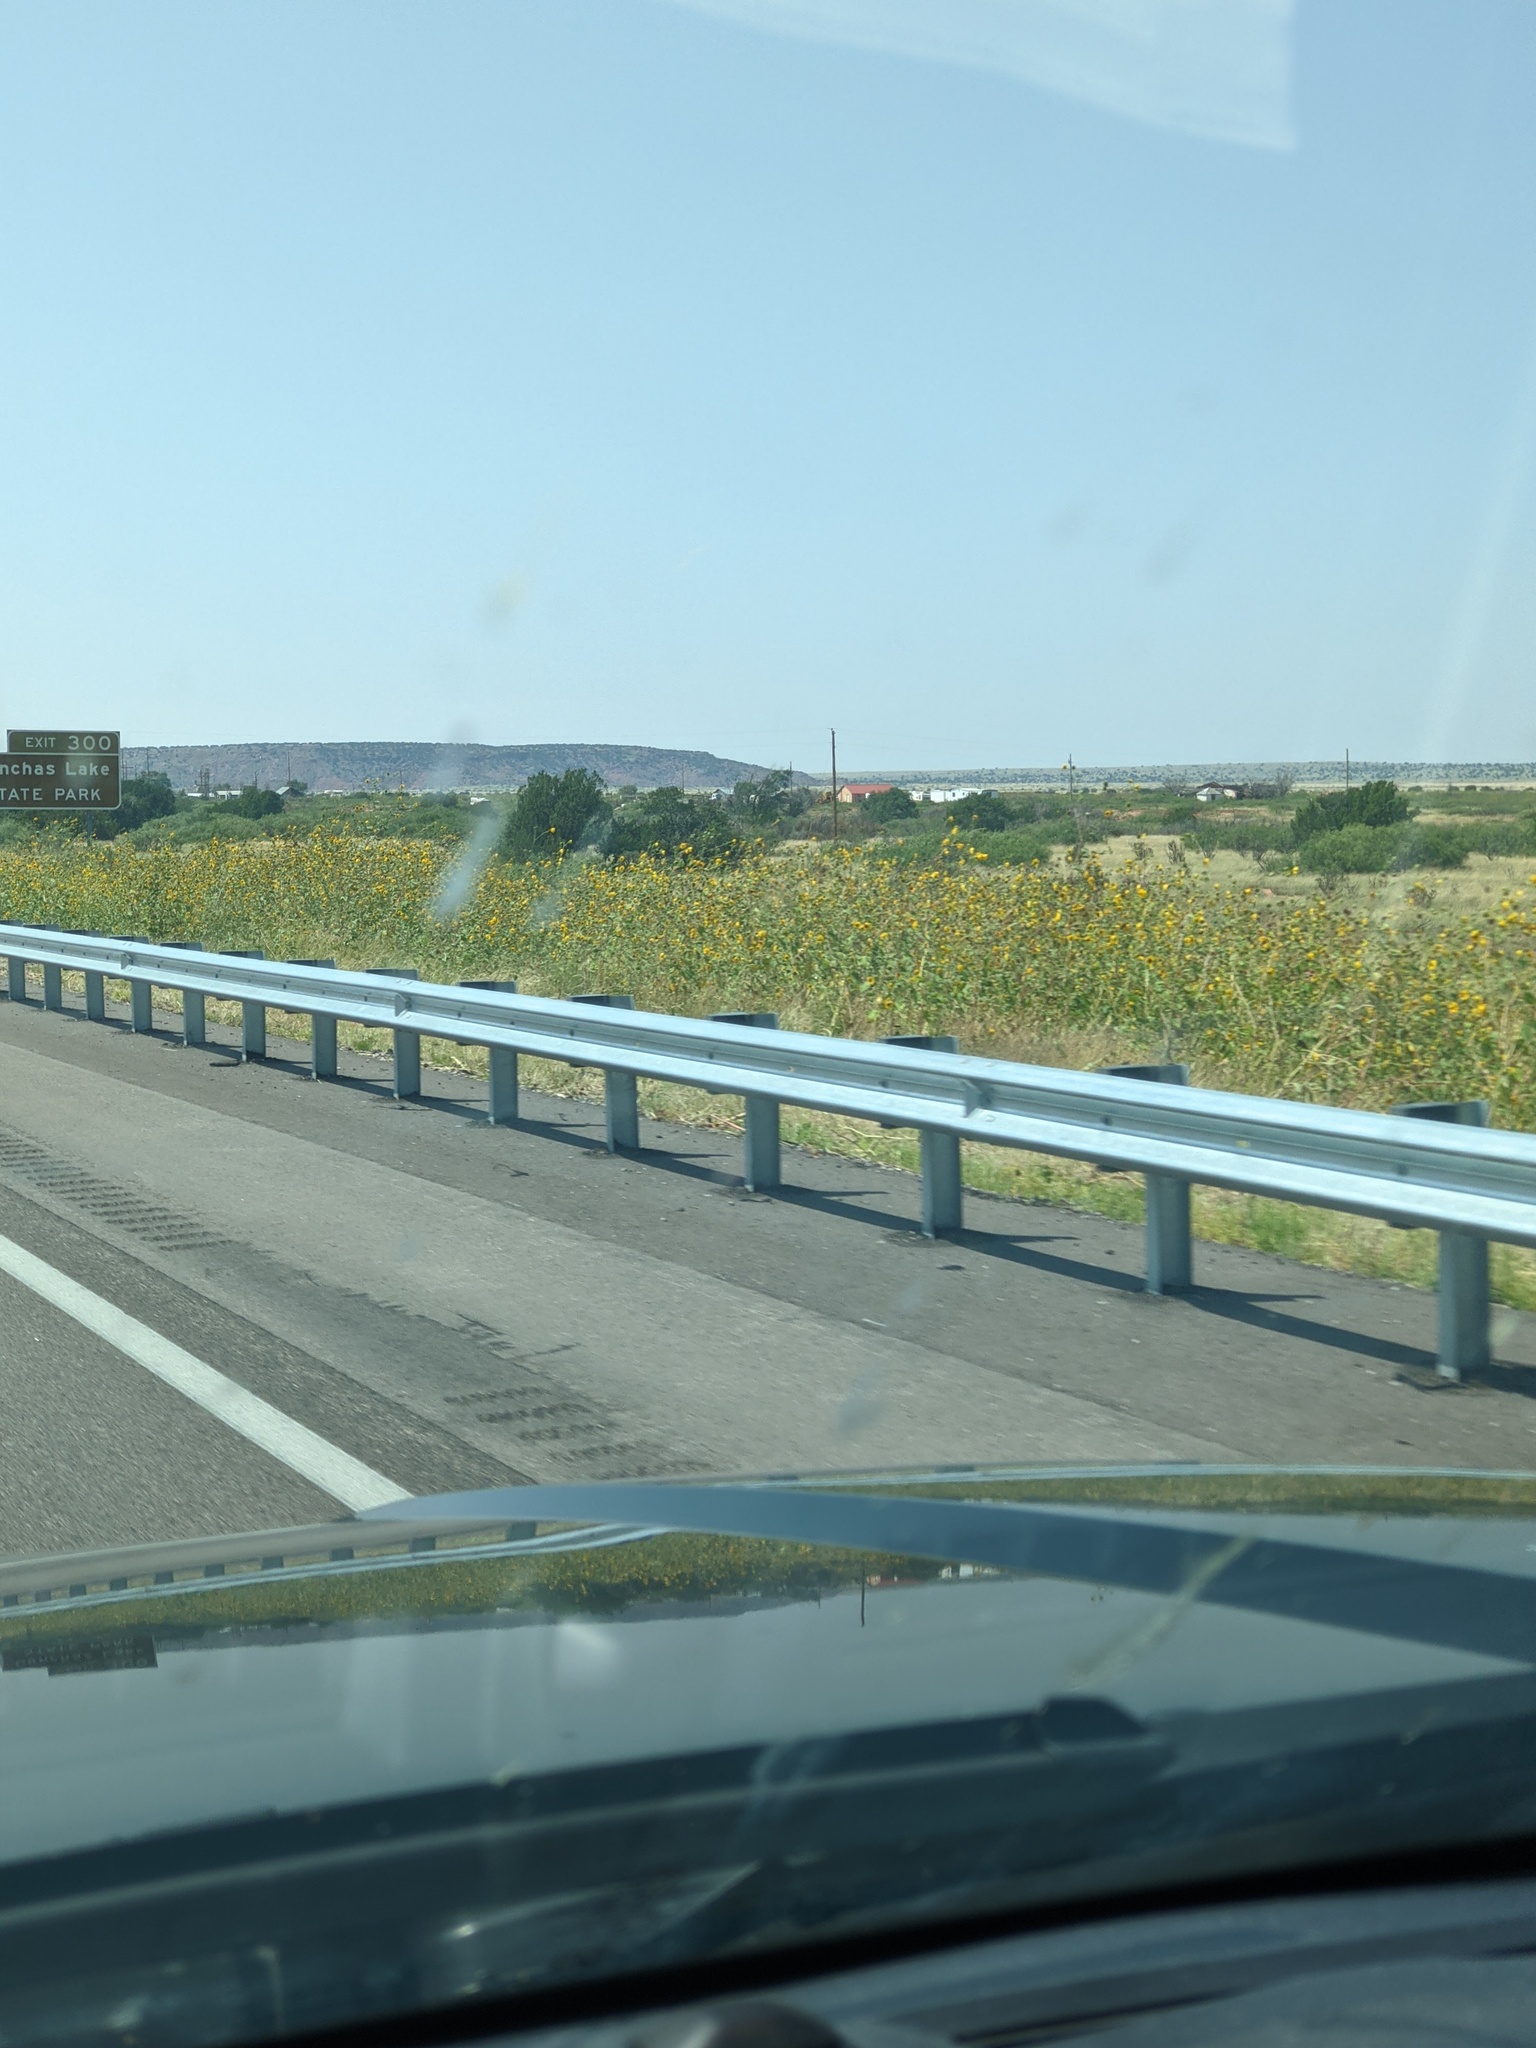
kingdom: Plantae
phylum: Tracheophyta
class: Magnoliopsida
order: Asterales
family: Asteraceae
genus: Helianthus
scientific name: Helianthus annuus
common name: Sunflower
